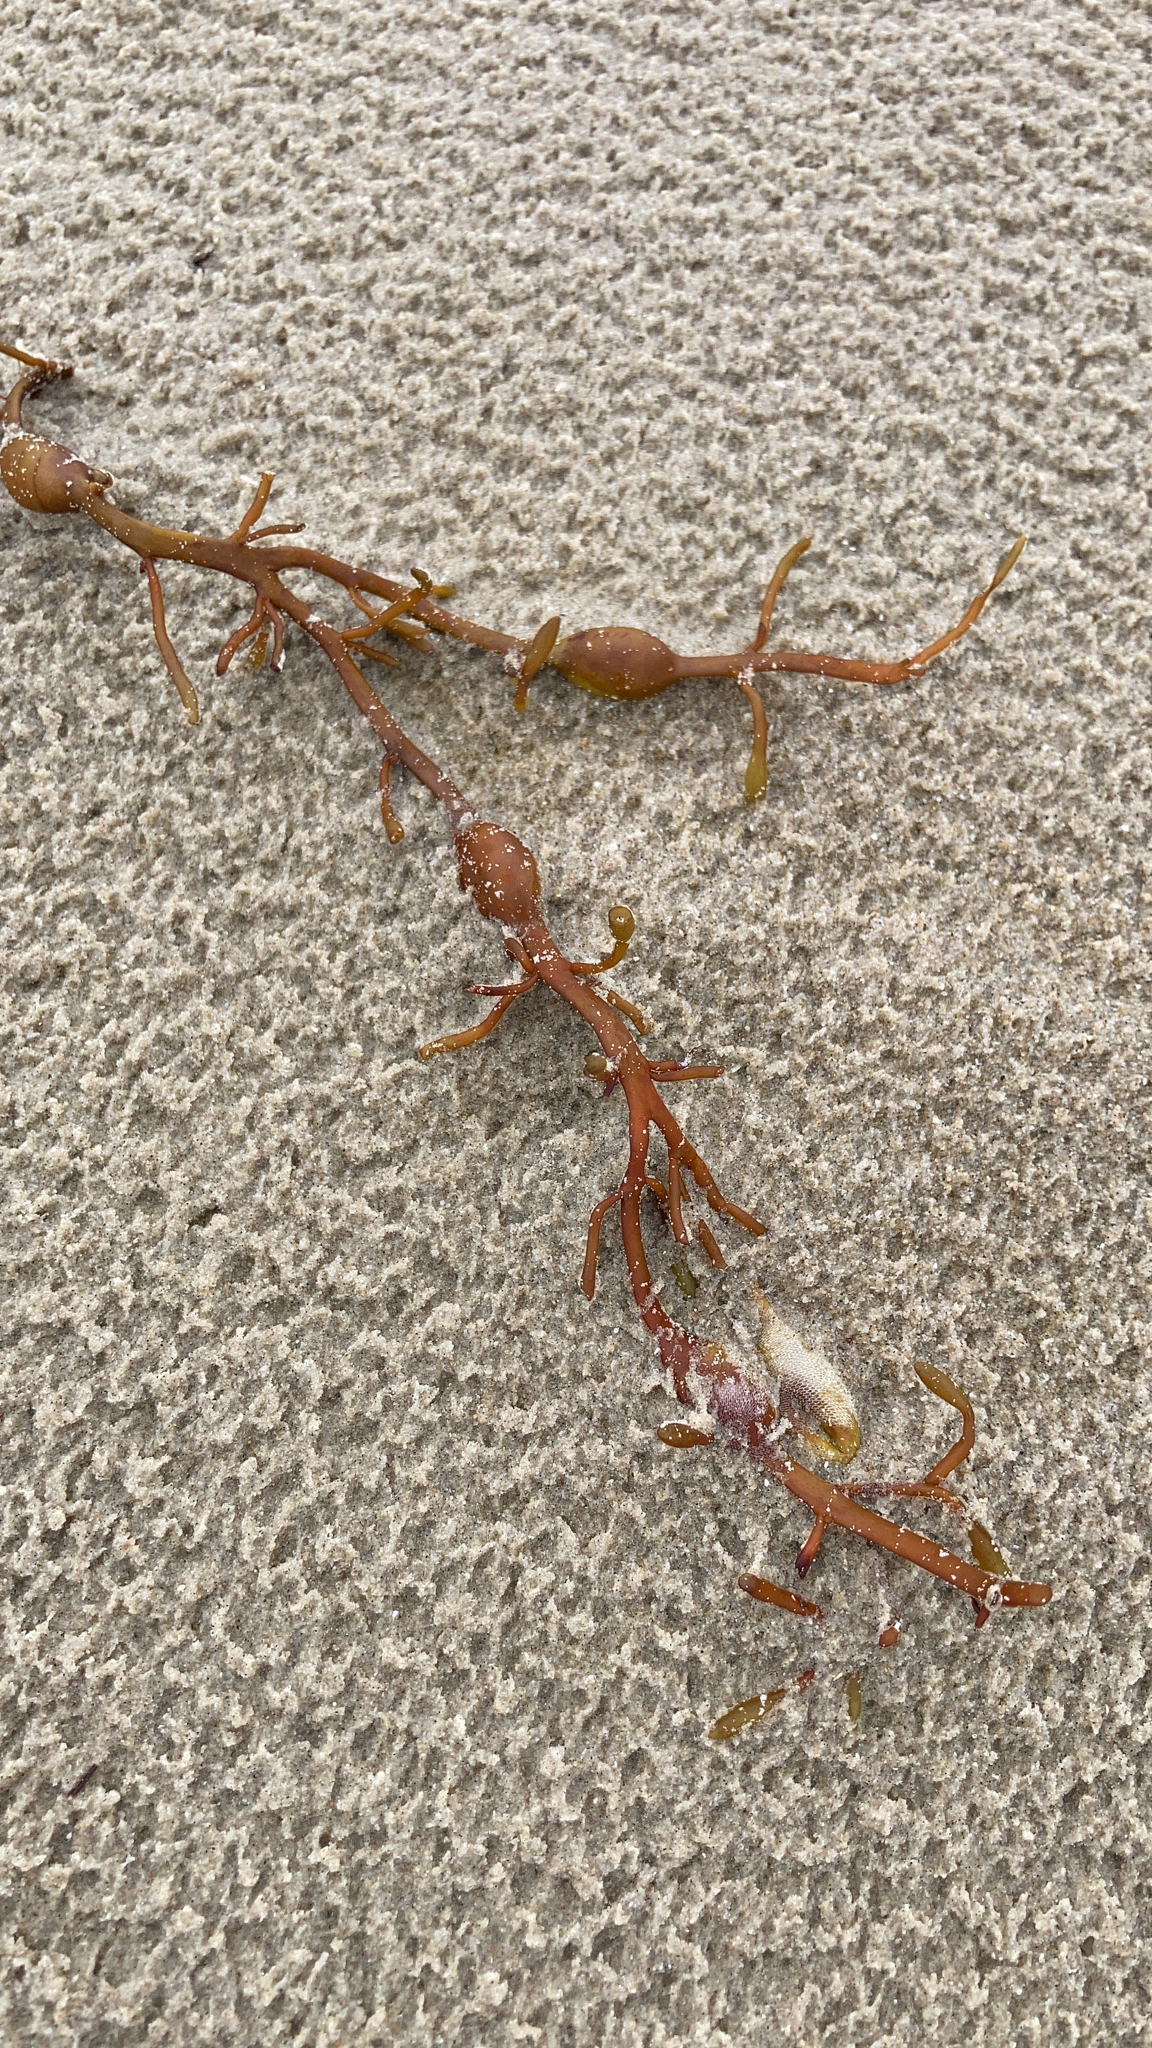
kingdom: Chromista
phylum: Ochrophyta
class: Phaeophyceae
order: Fucales
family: Fucaceae
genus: Ascophyllum
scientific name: Ascophyllum nodosum
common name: Knotted wrack
